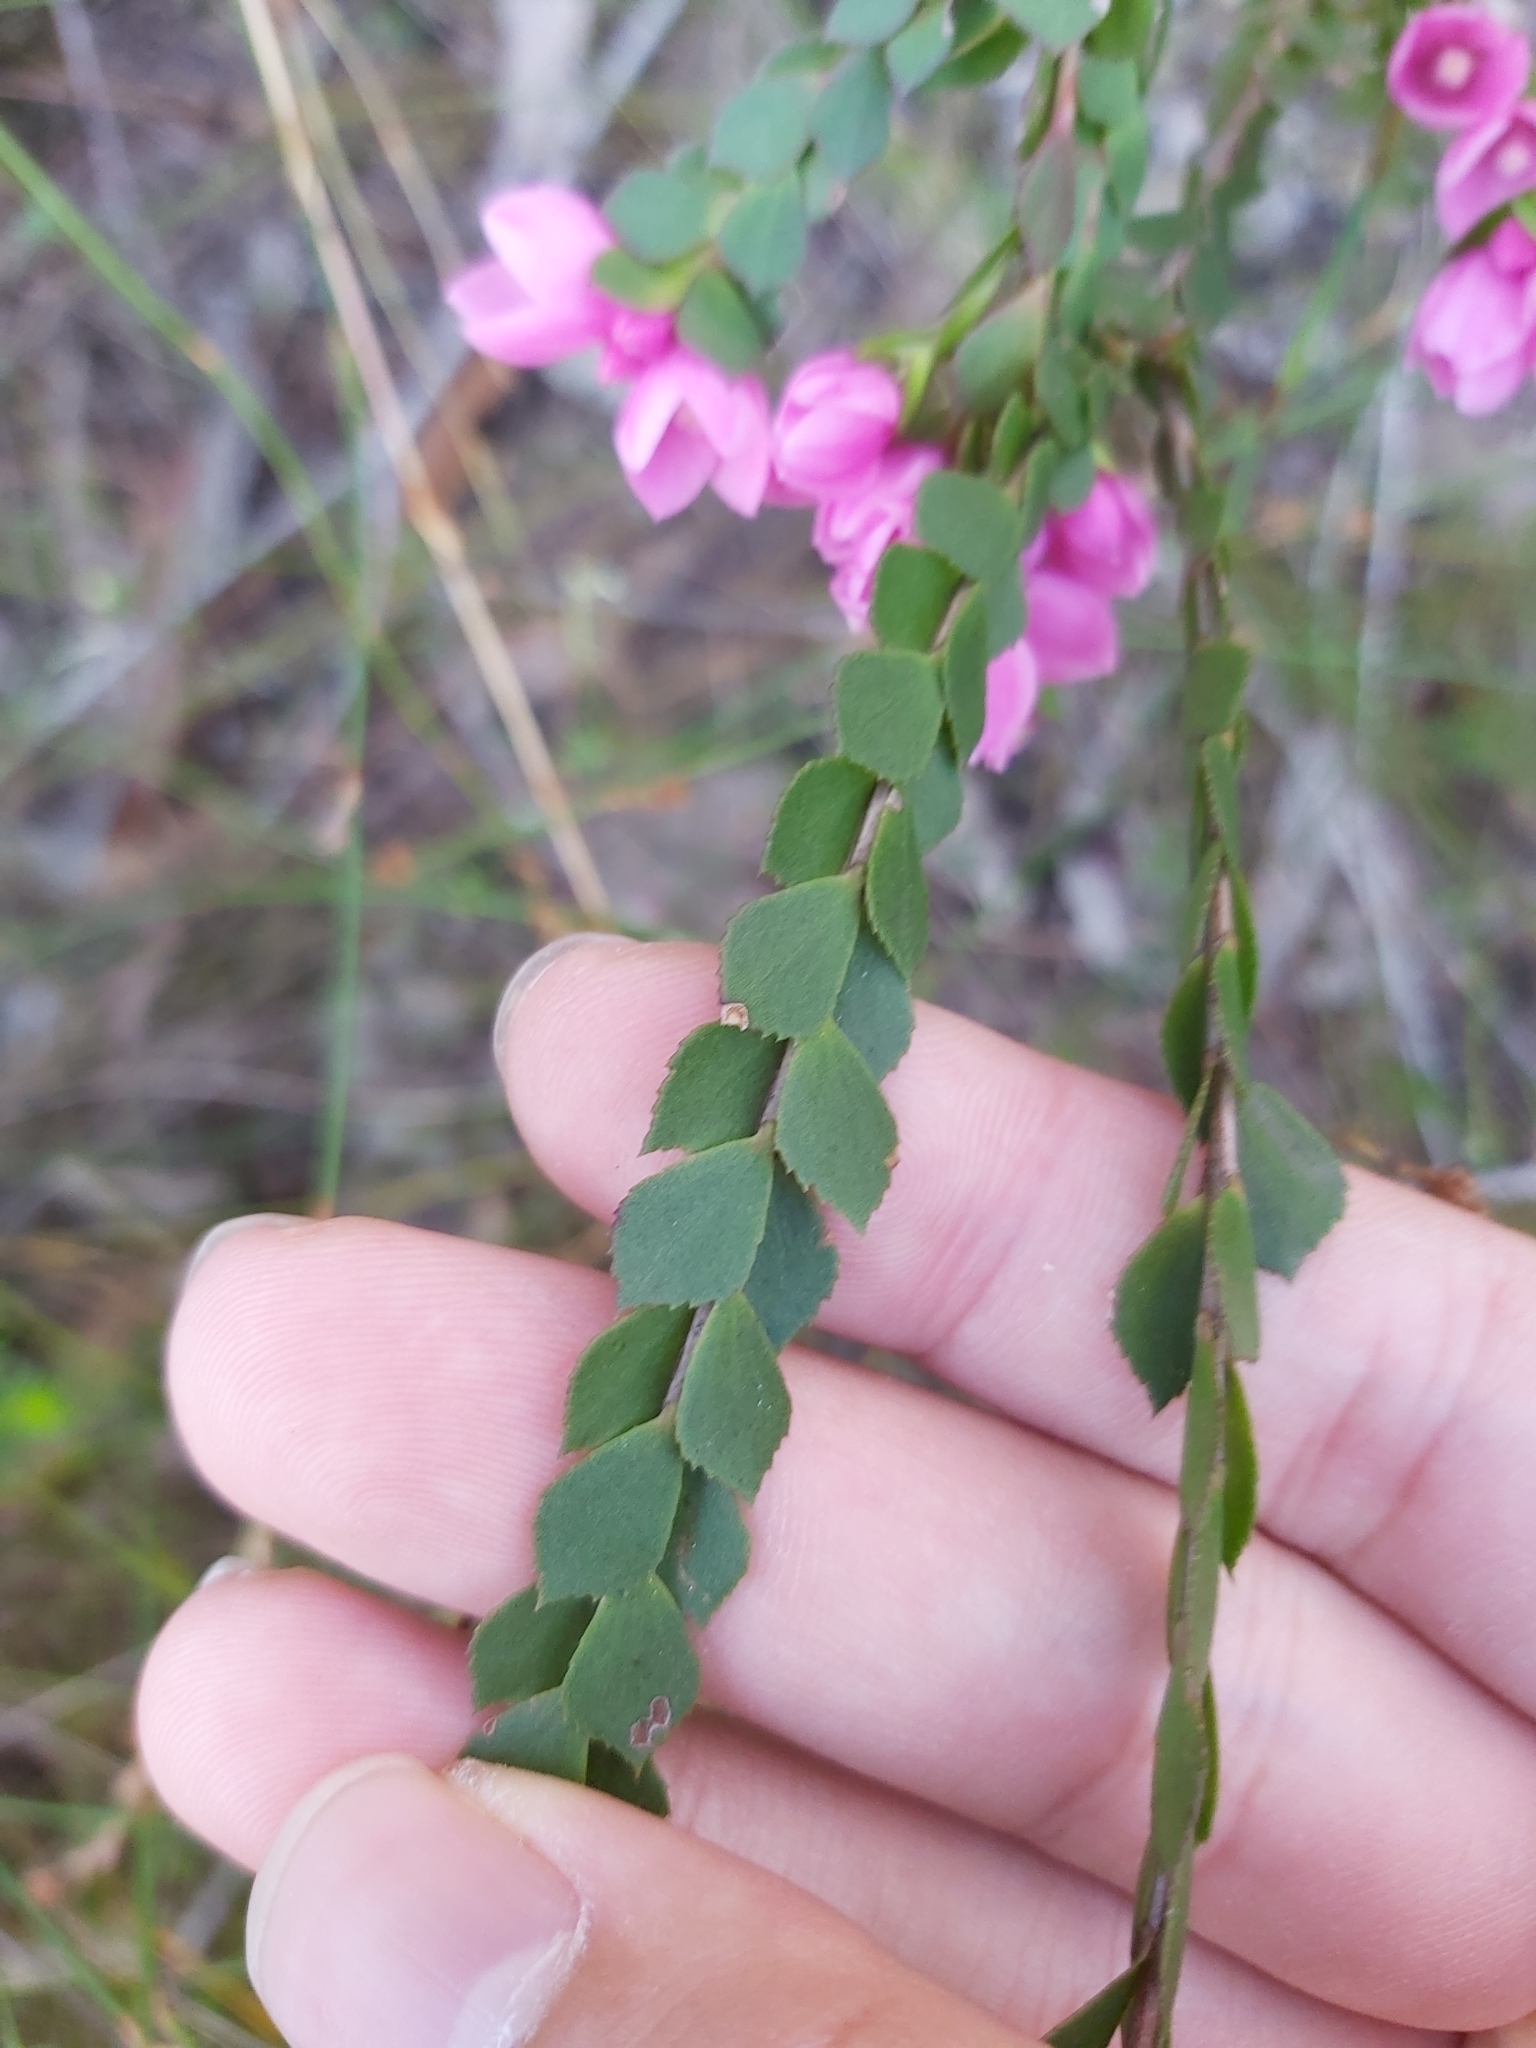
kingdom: Plantae
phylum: Tracheophyta
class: Magnoliopsida
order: Sapindales
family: Rutaceae
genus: Boronia
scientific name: Boronia serrulata
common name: Rose boronia
